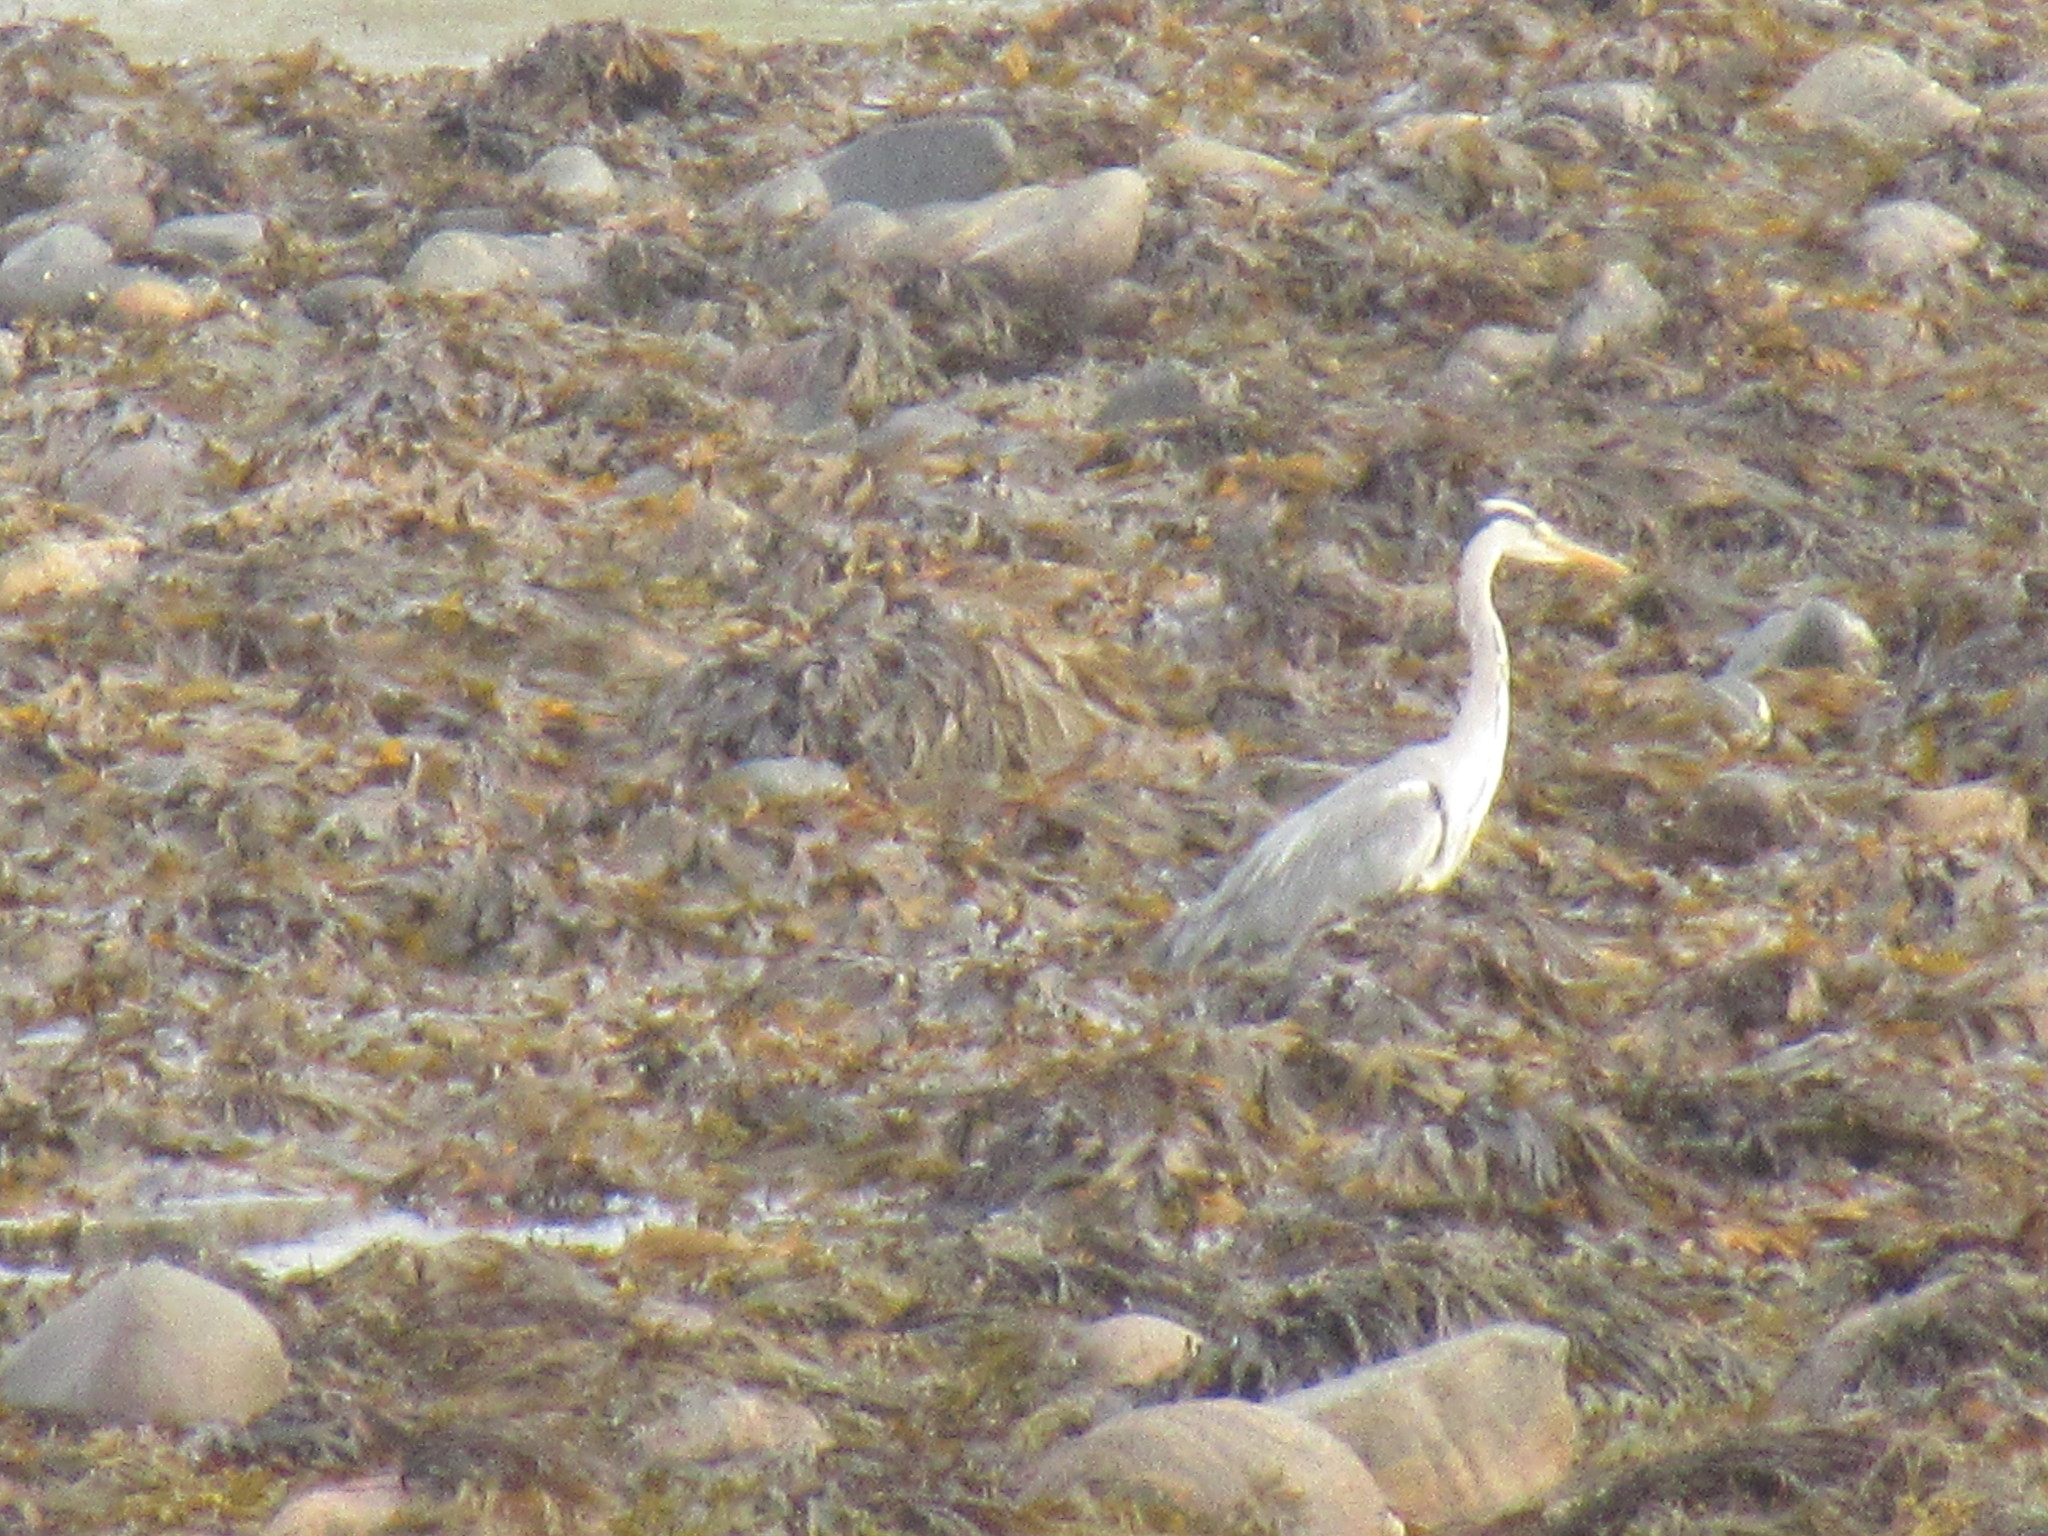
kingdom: Animalia
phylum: Chordata
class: Aves
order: Pelecaniformes
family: Ardeidae
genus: Ardea
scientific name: Ardea cinerea
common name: Grey heron
